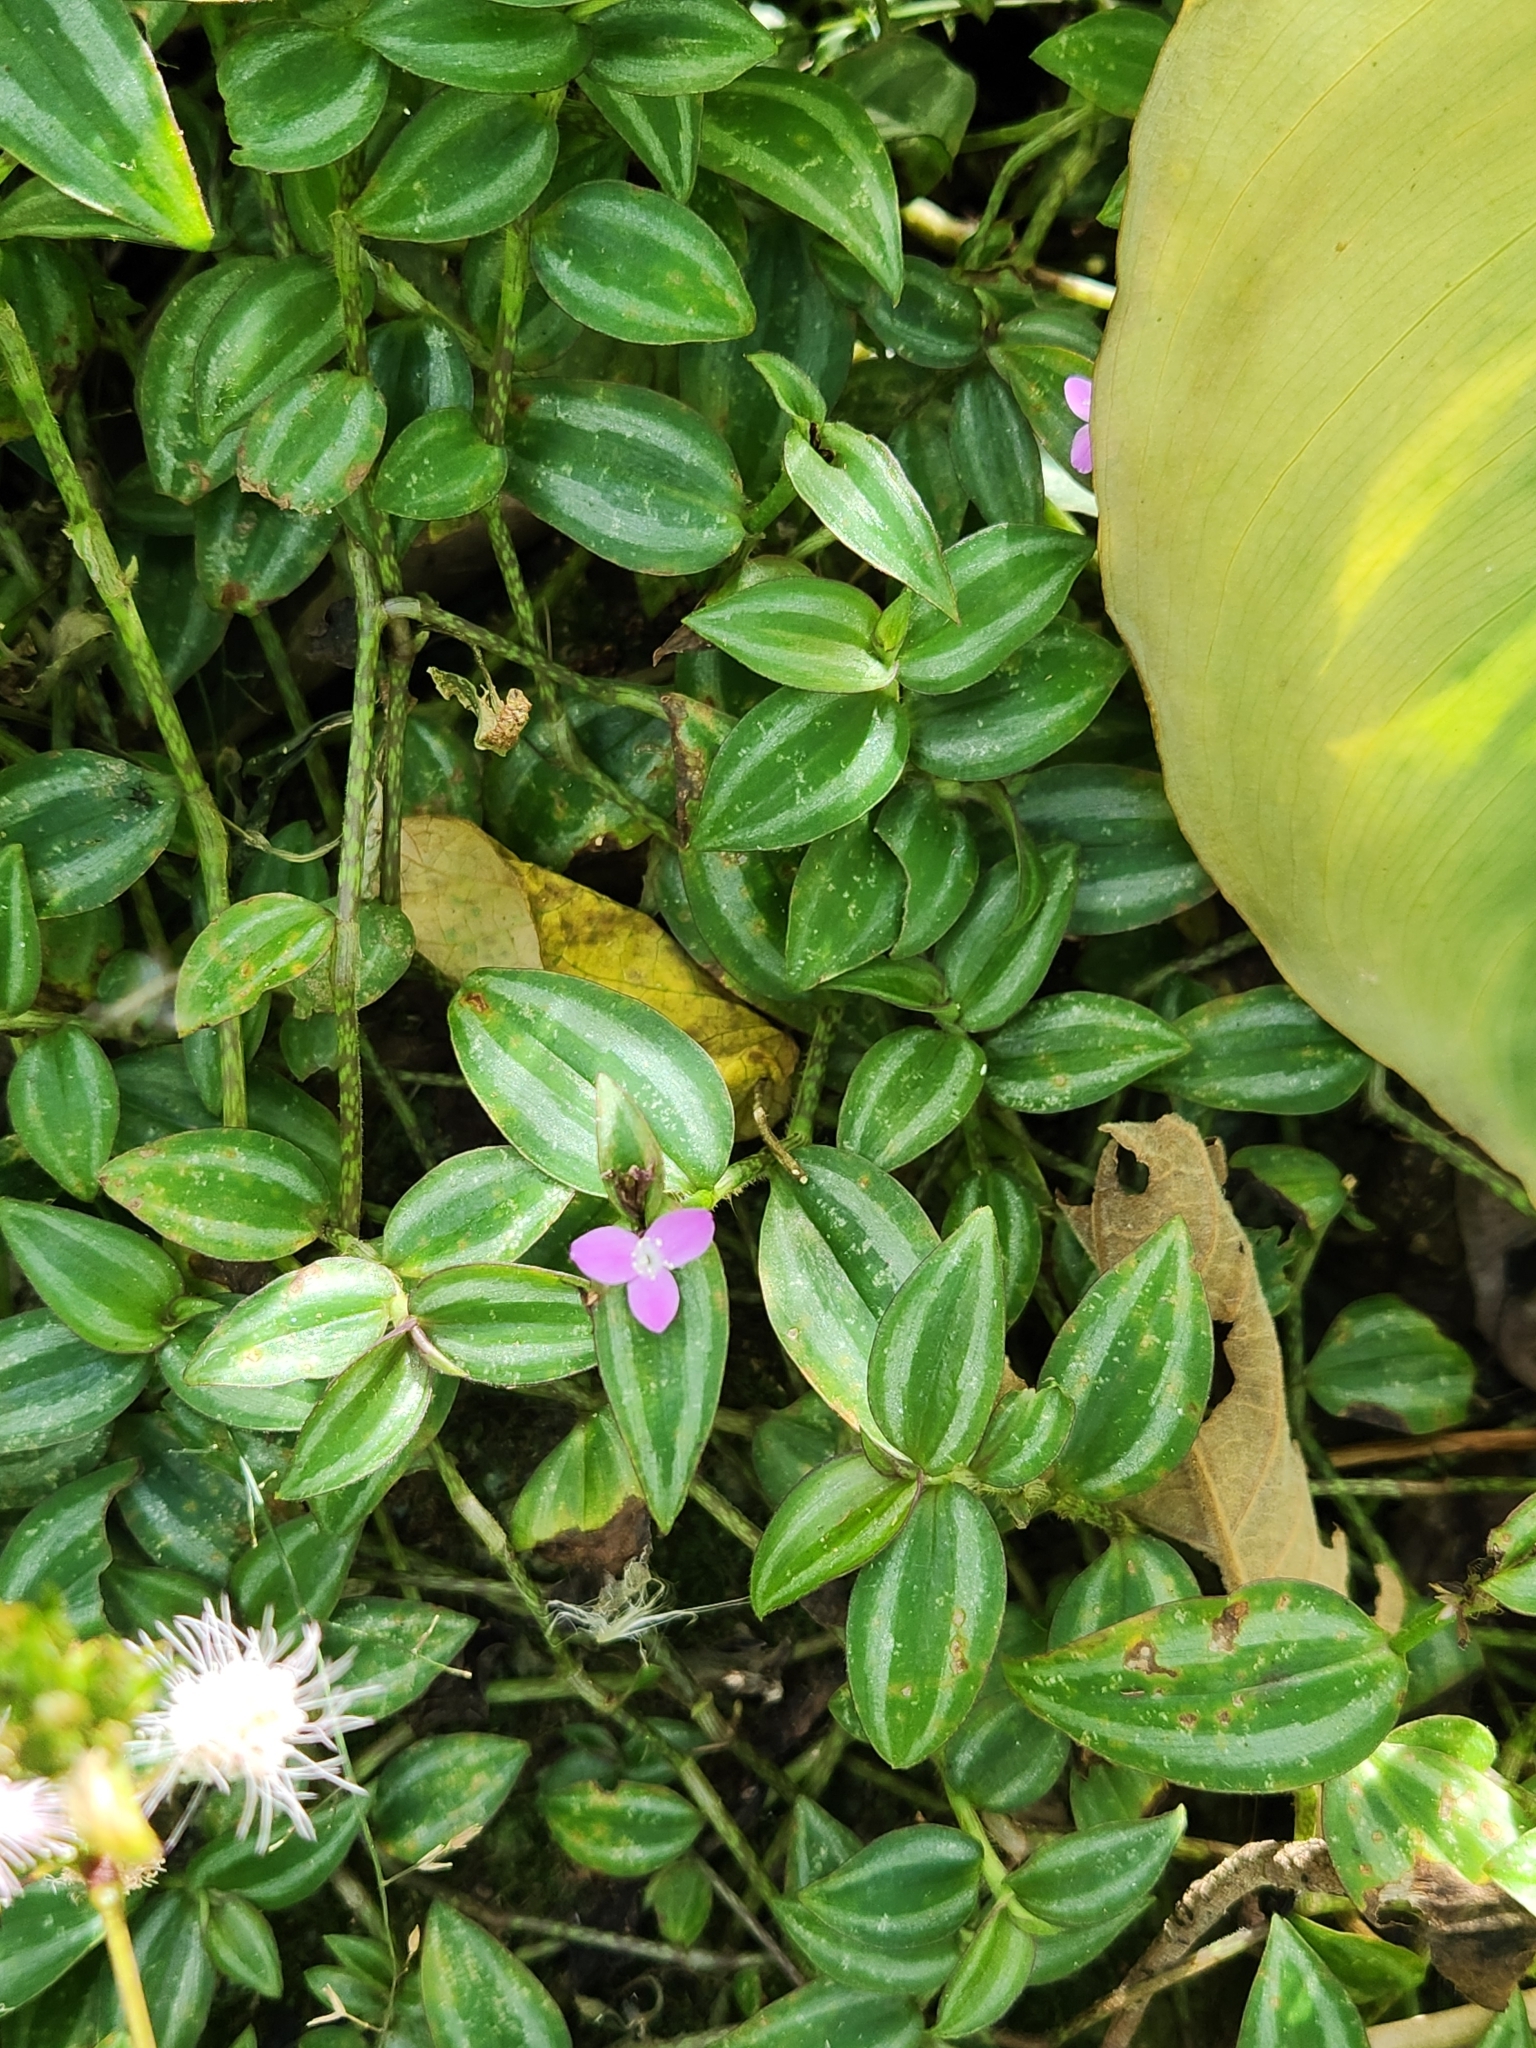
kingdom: Plantae
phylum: Tracheophyta
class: Liliopsida
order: Commelinales
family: Commelinaceae
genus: Tradescantia
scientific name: Tradescantia zebrina
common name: Inchplant
